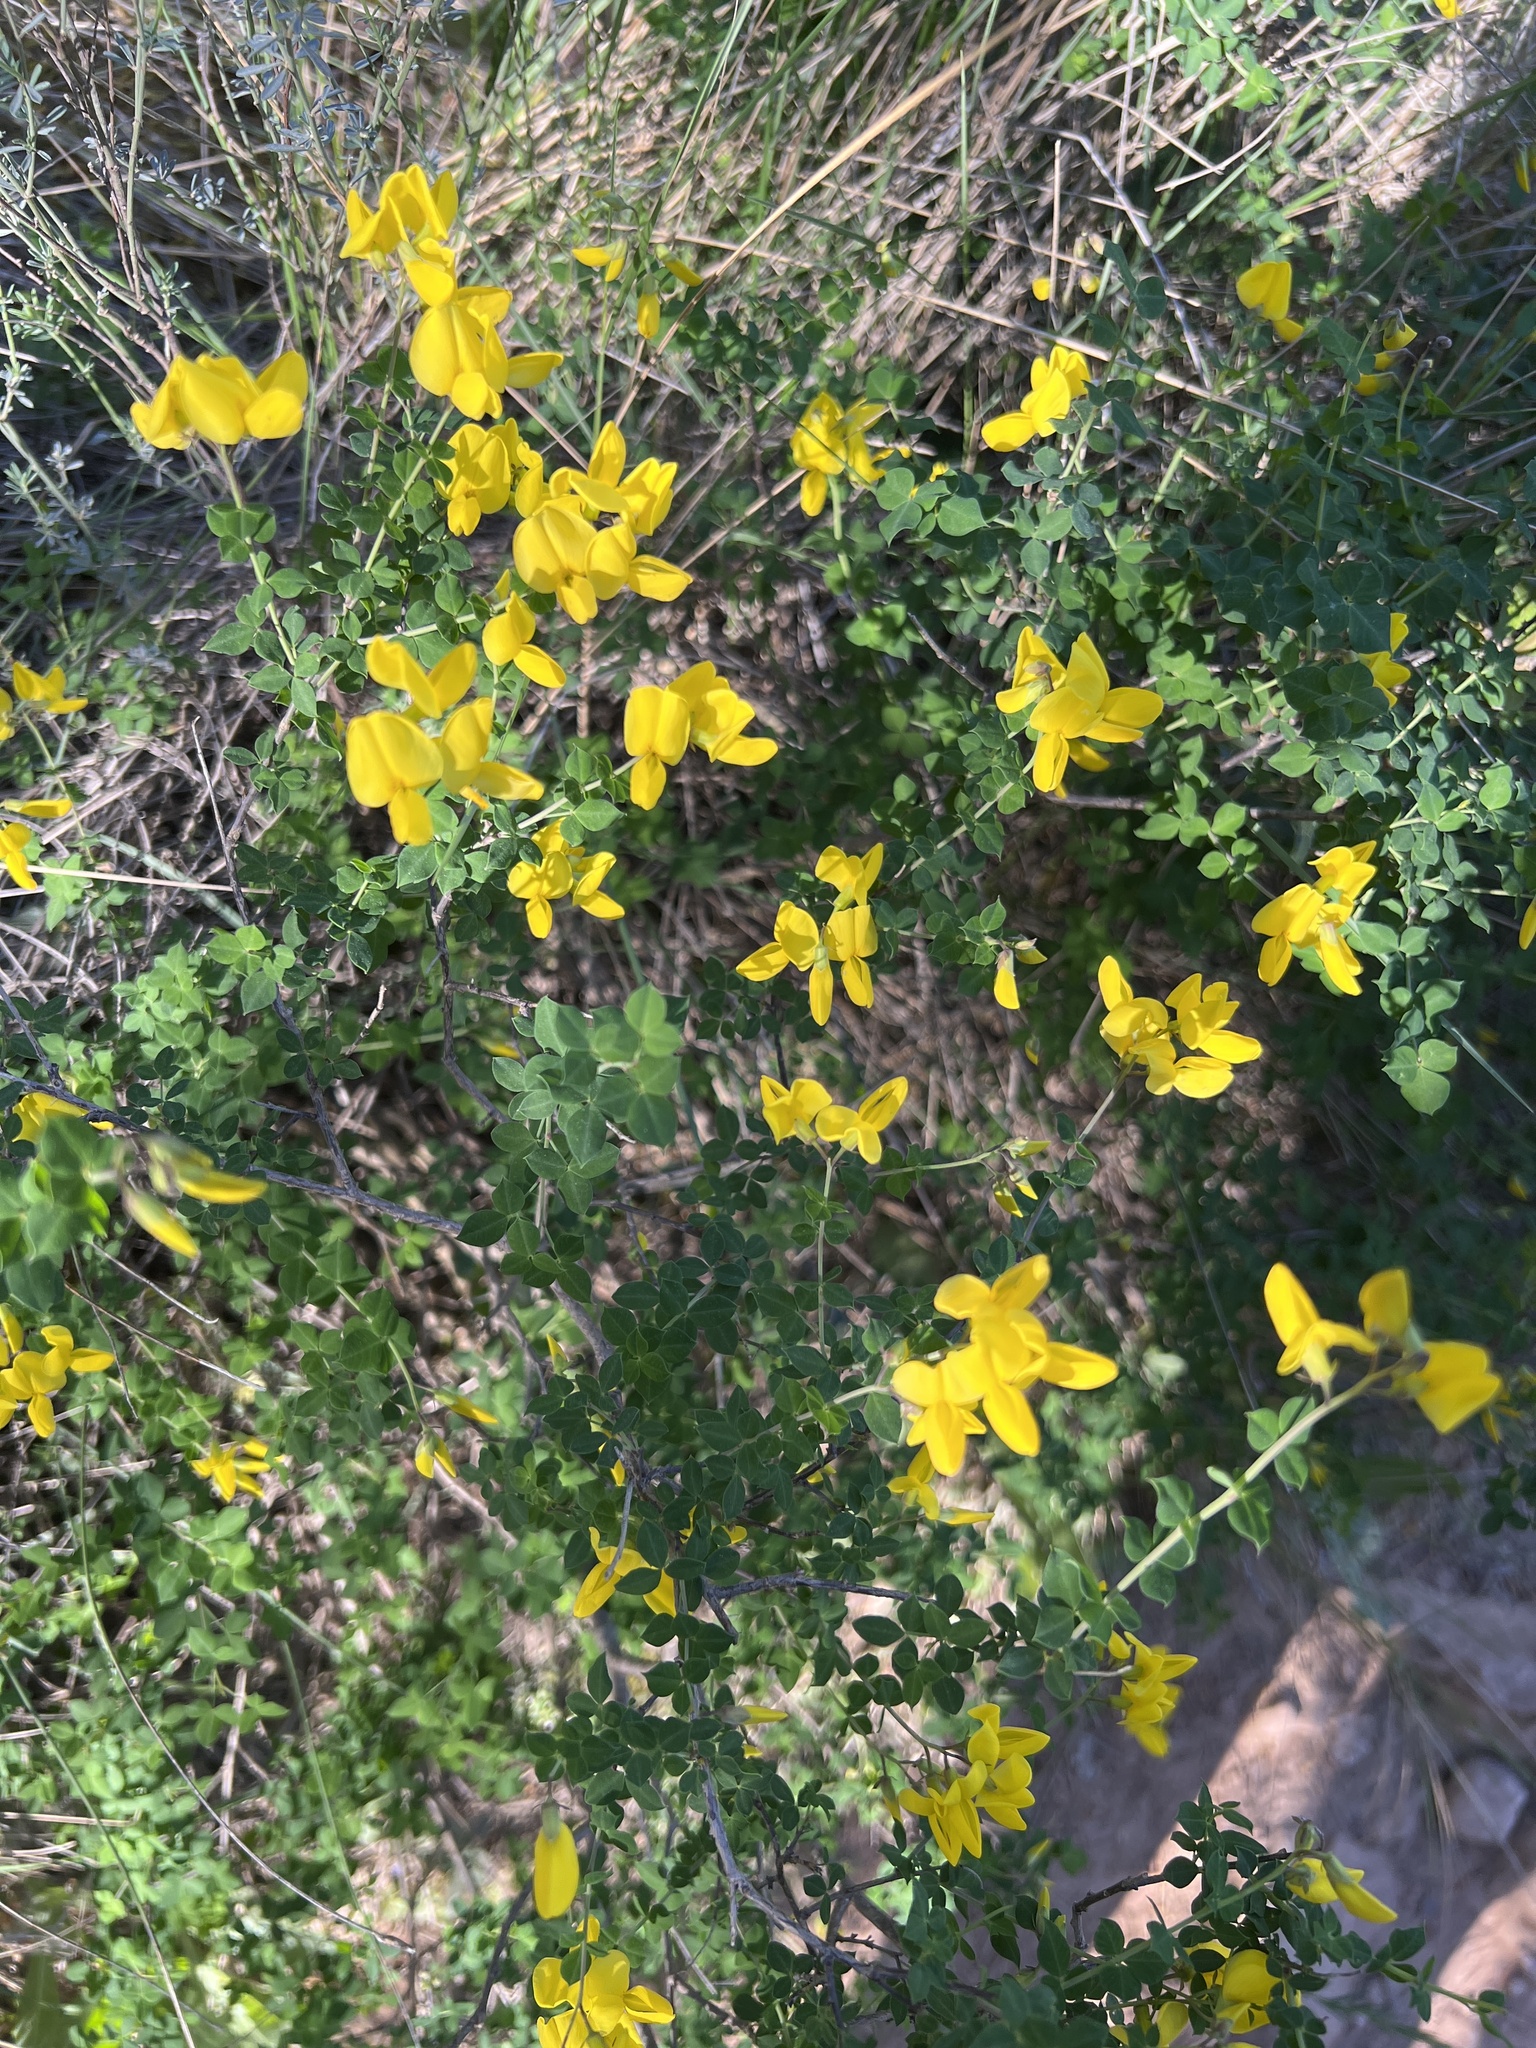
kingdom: Plantae
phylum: Tracheophyta
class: Magnoliopsida
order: Fabales
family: Fabaceae
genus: Cytisophyllum
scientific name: Cytisophyllum sessilifolium
